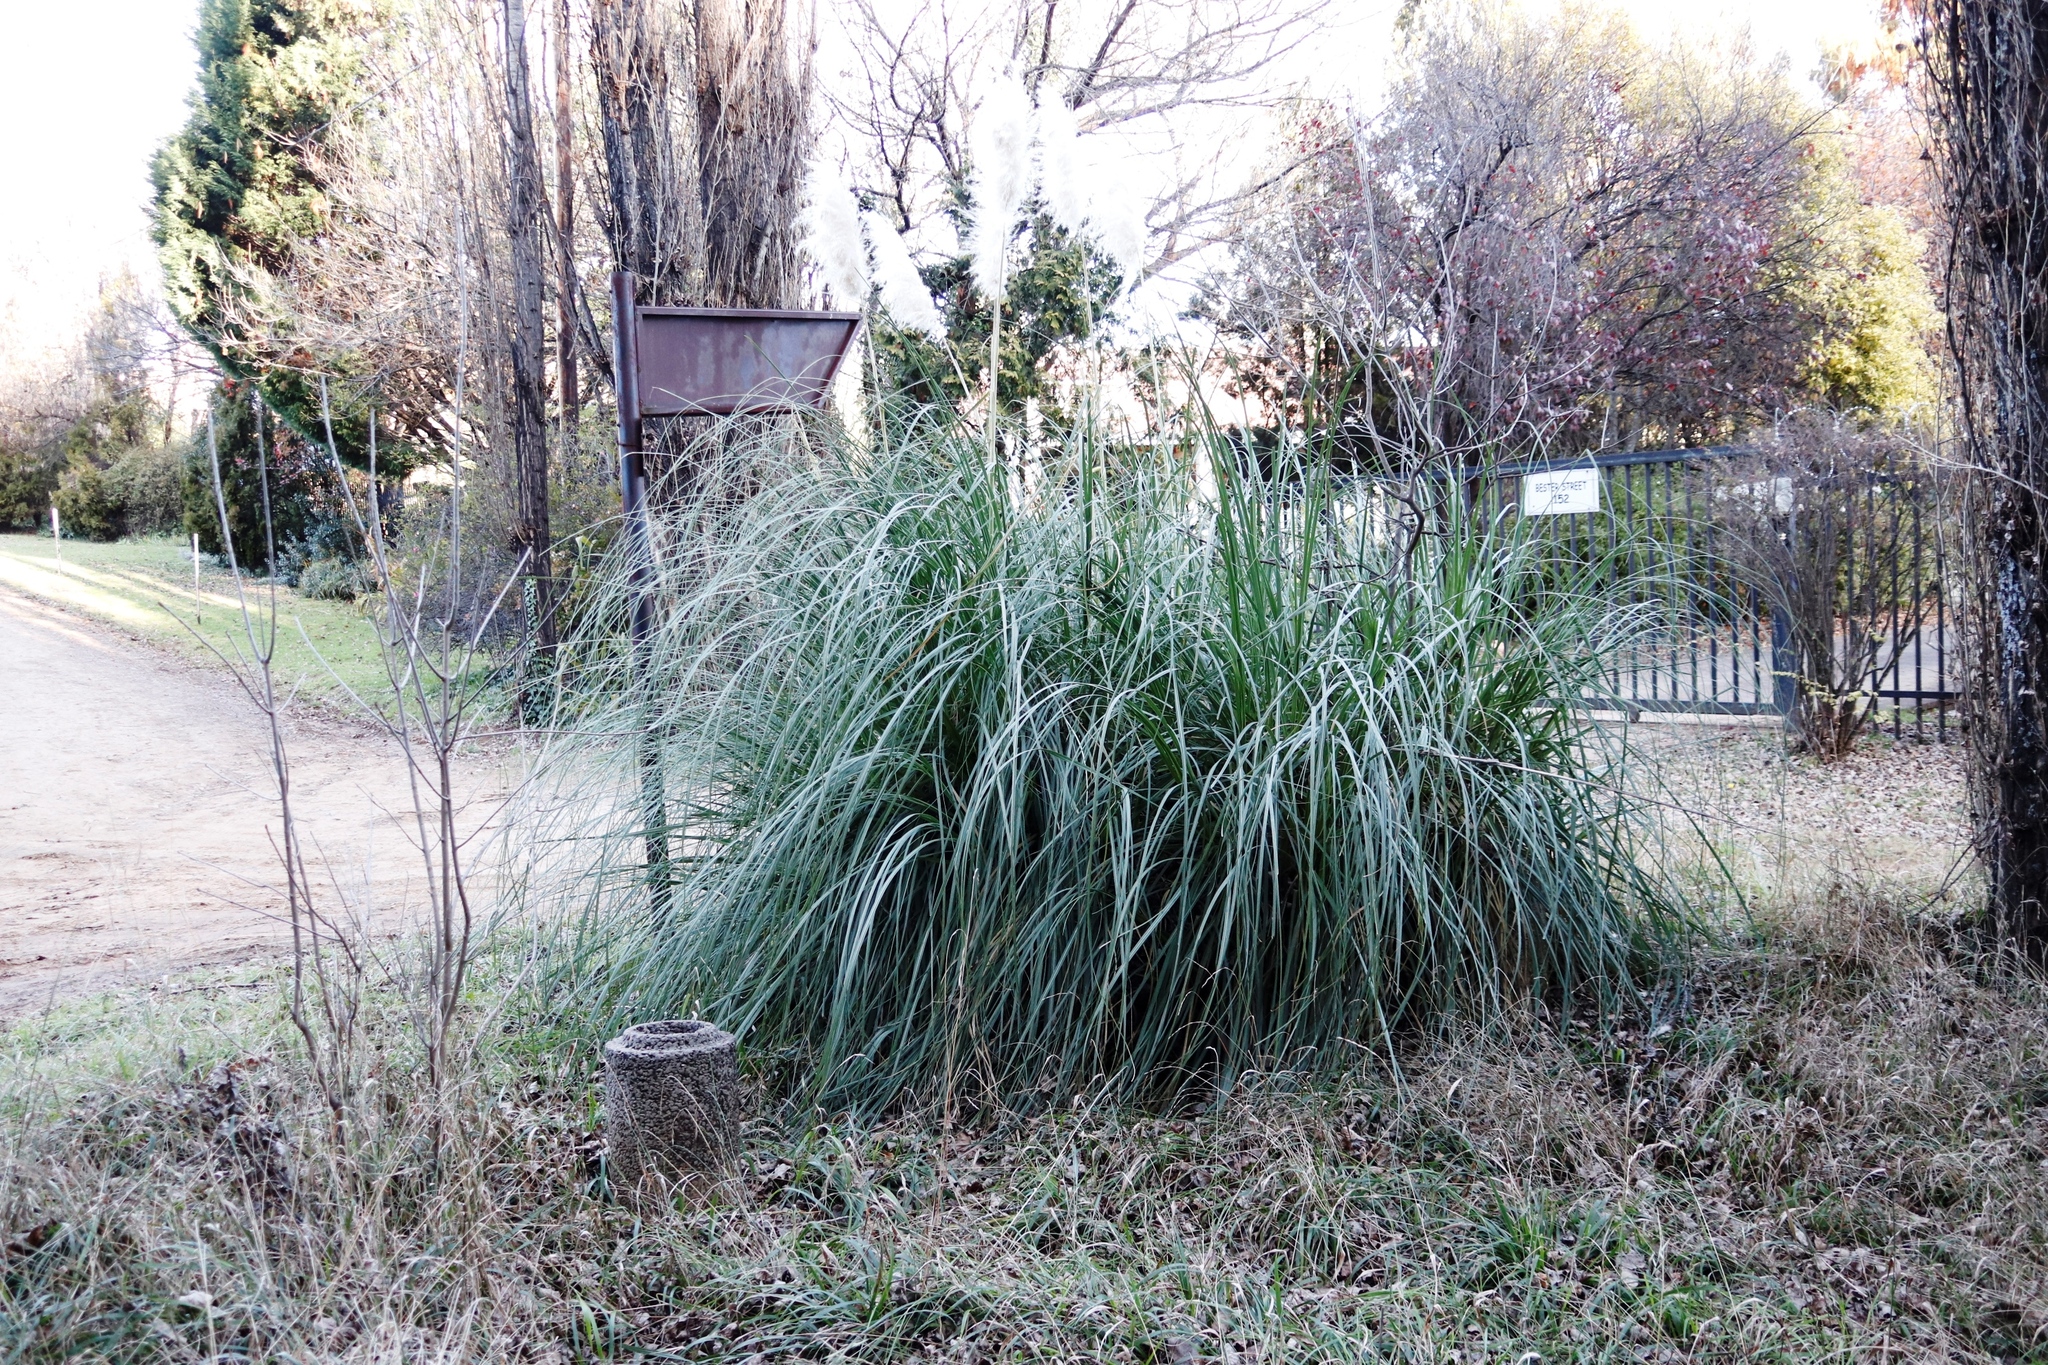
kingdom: Plantae
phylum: Tracheophyta
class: Liliopsida
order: Poales
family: Poaceae
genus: Cortaderia
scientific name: Cortaderia selloana
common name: Uruguayan pampas grass
